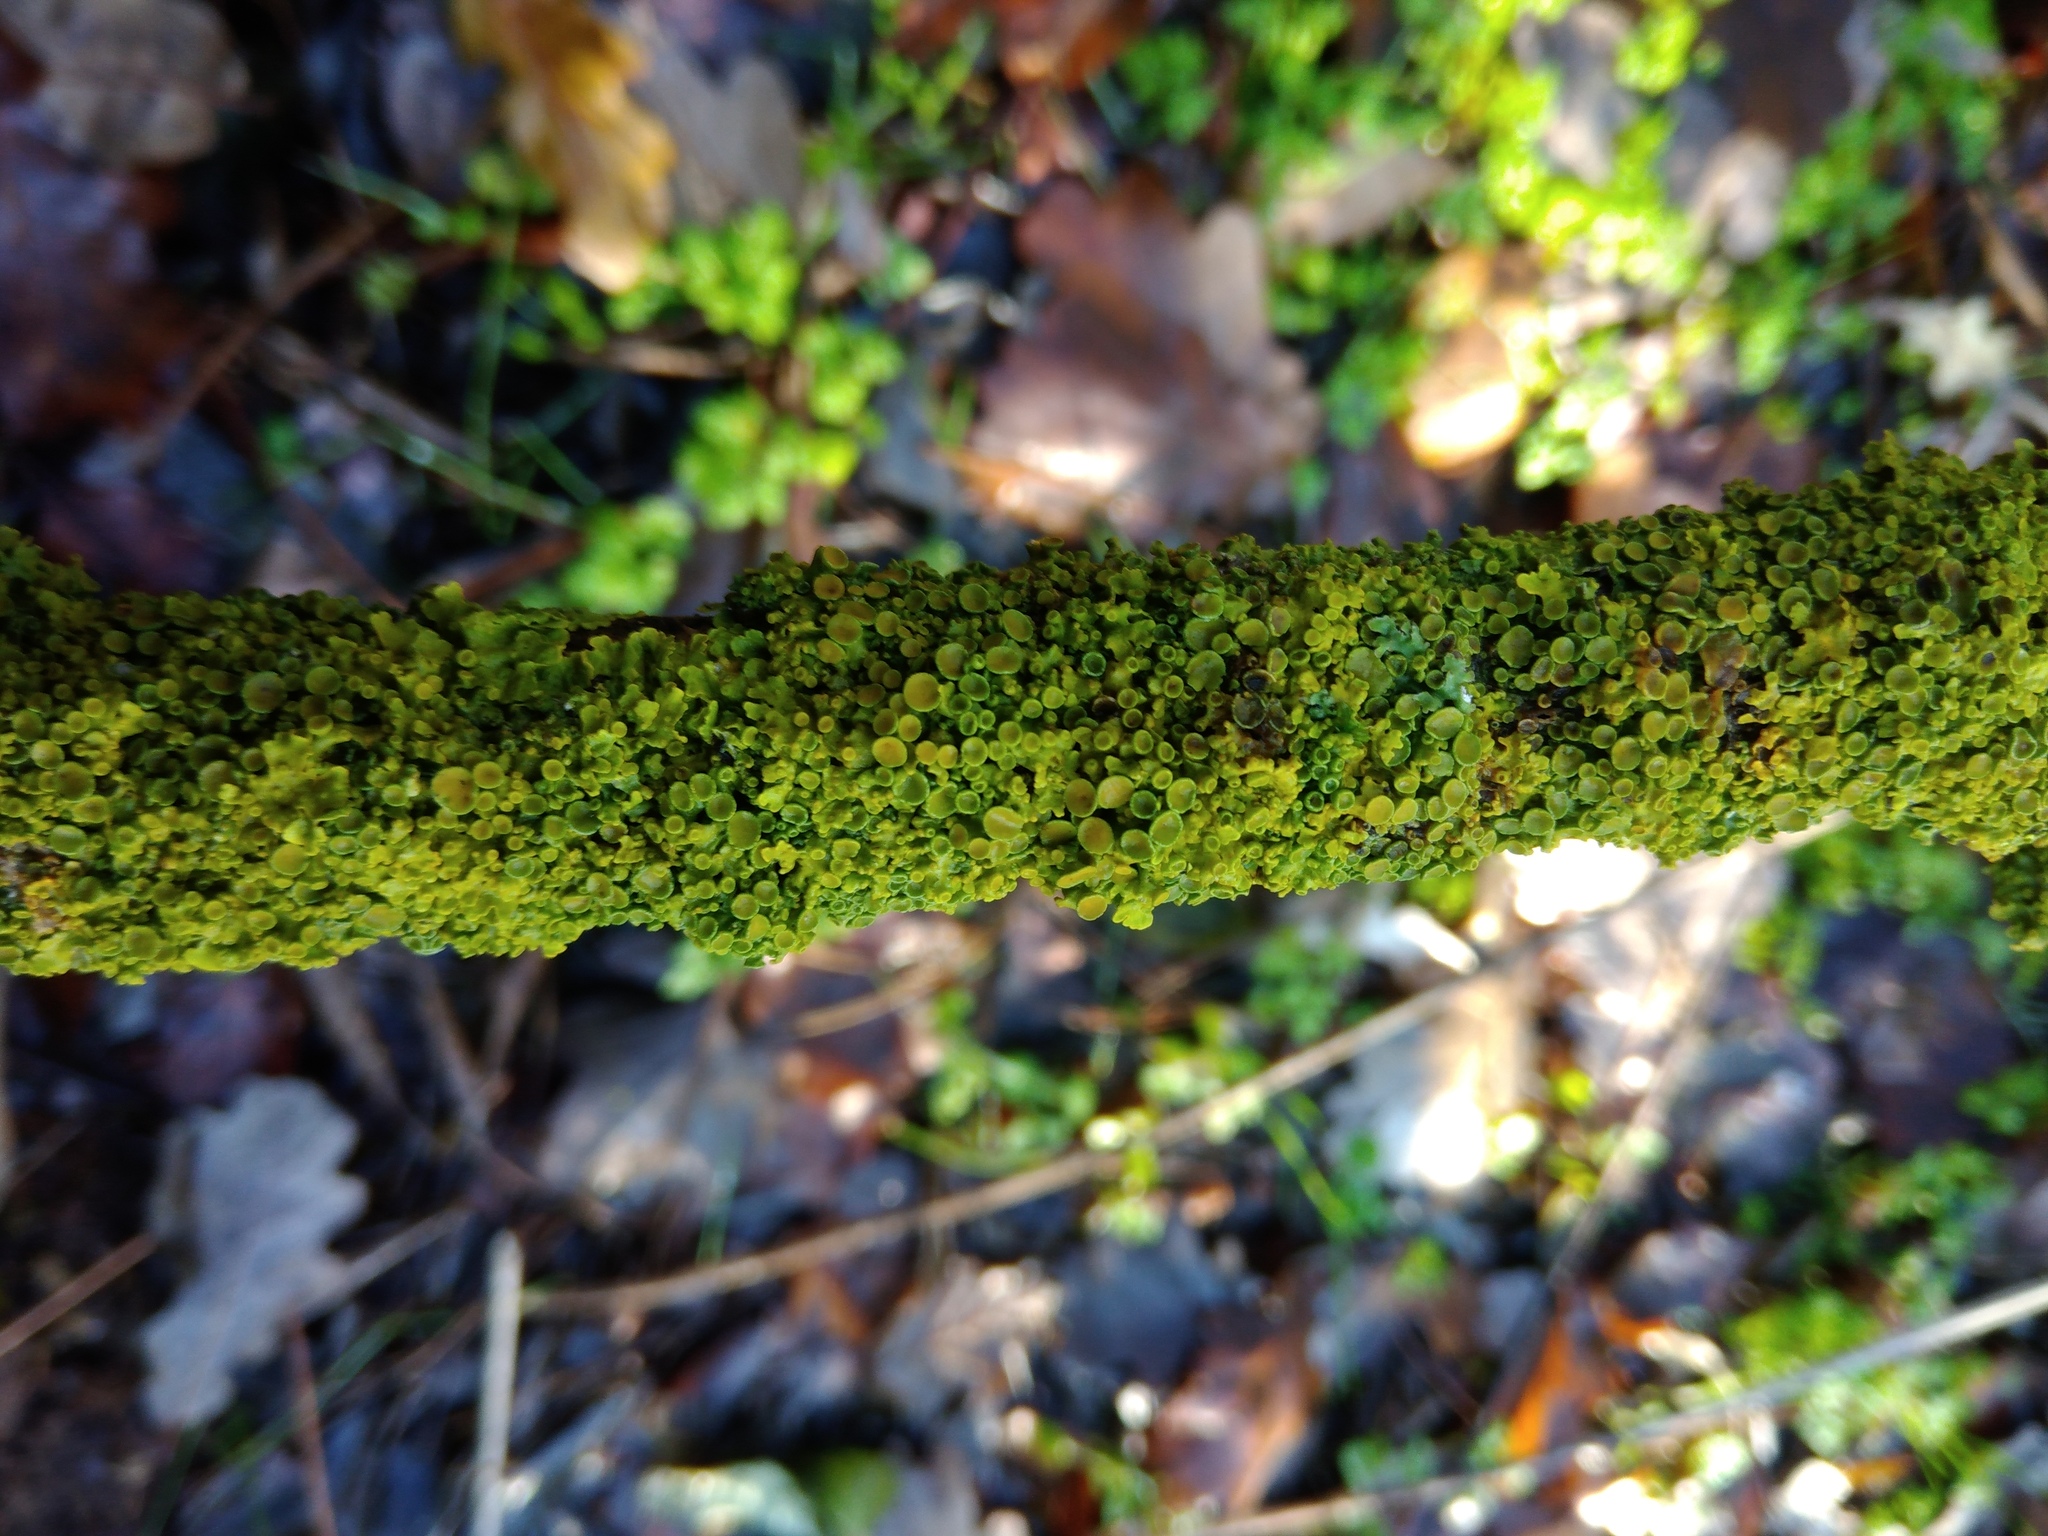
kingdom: Fungi
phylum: Ascomycota
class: Lecanoromycetes
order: Teloschistales
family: Teloschistaceae
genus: Xanthoria
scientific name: Xanthoria parietina
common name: Common orange lichen
